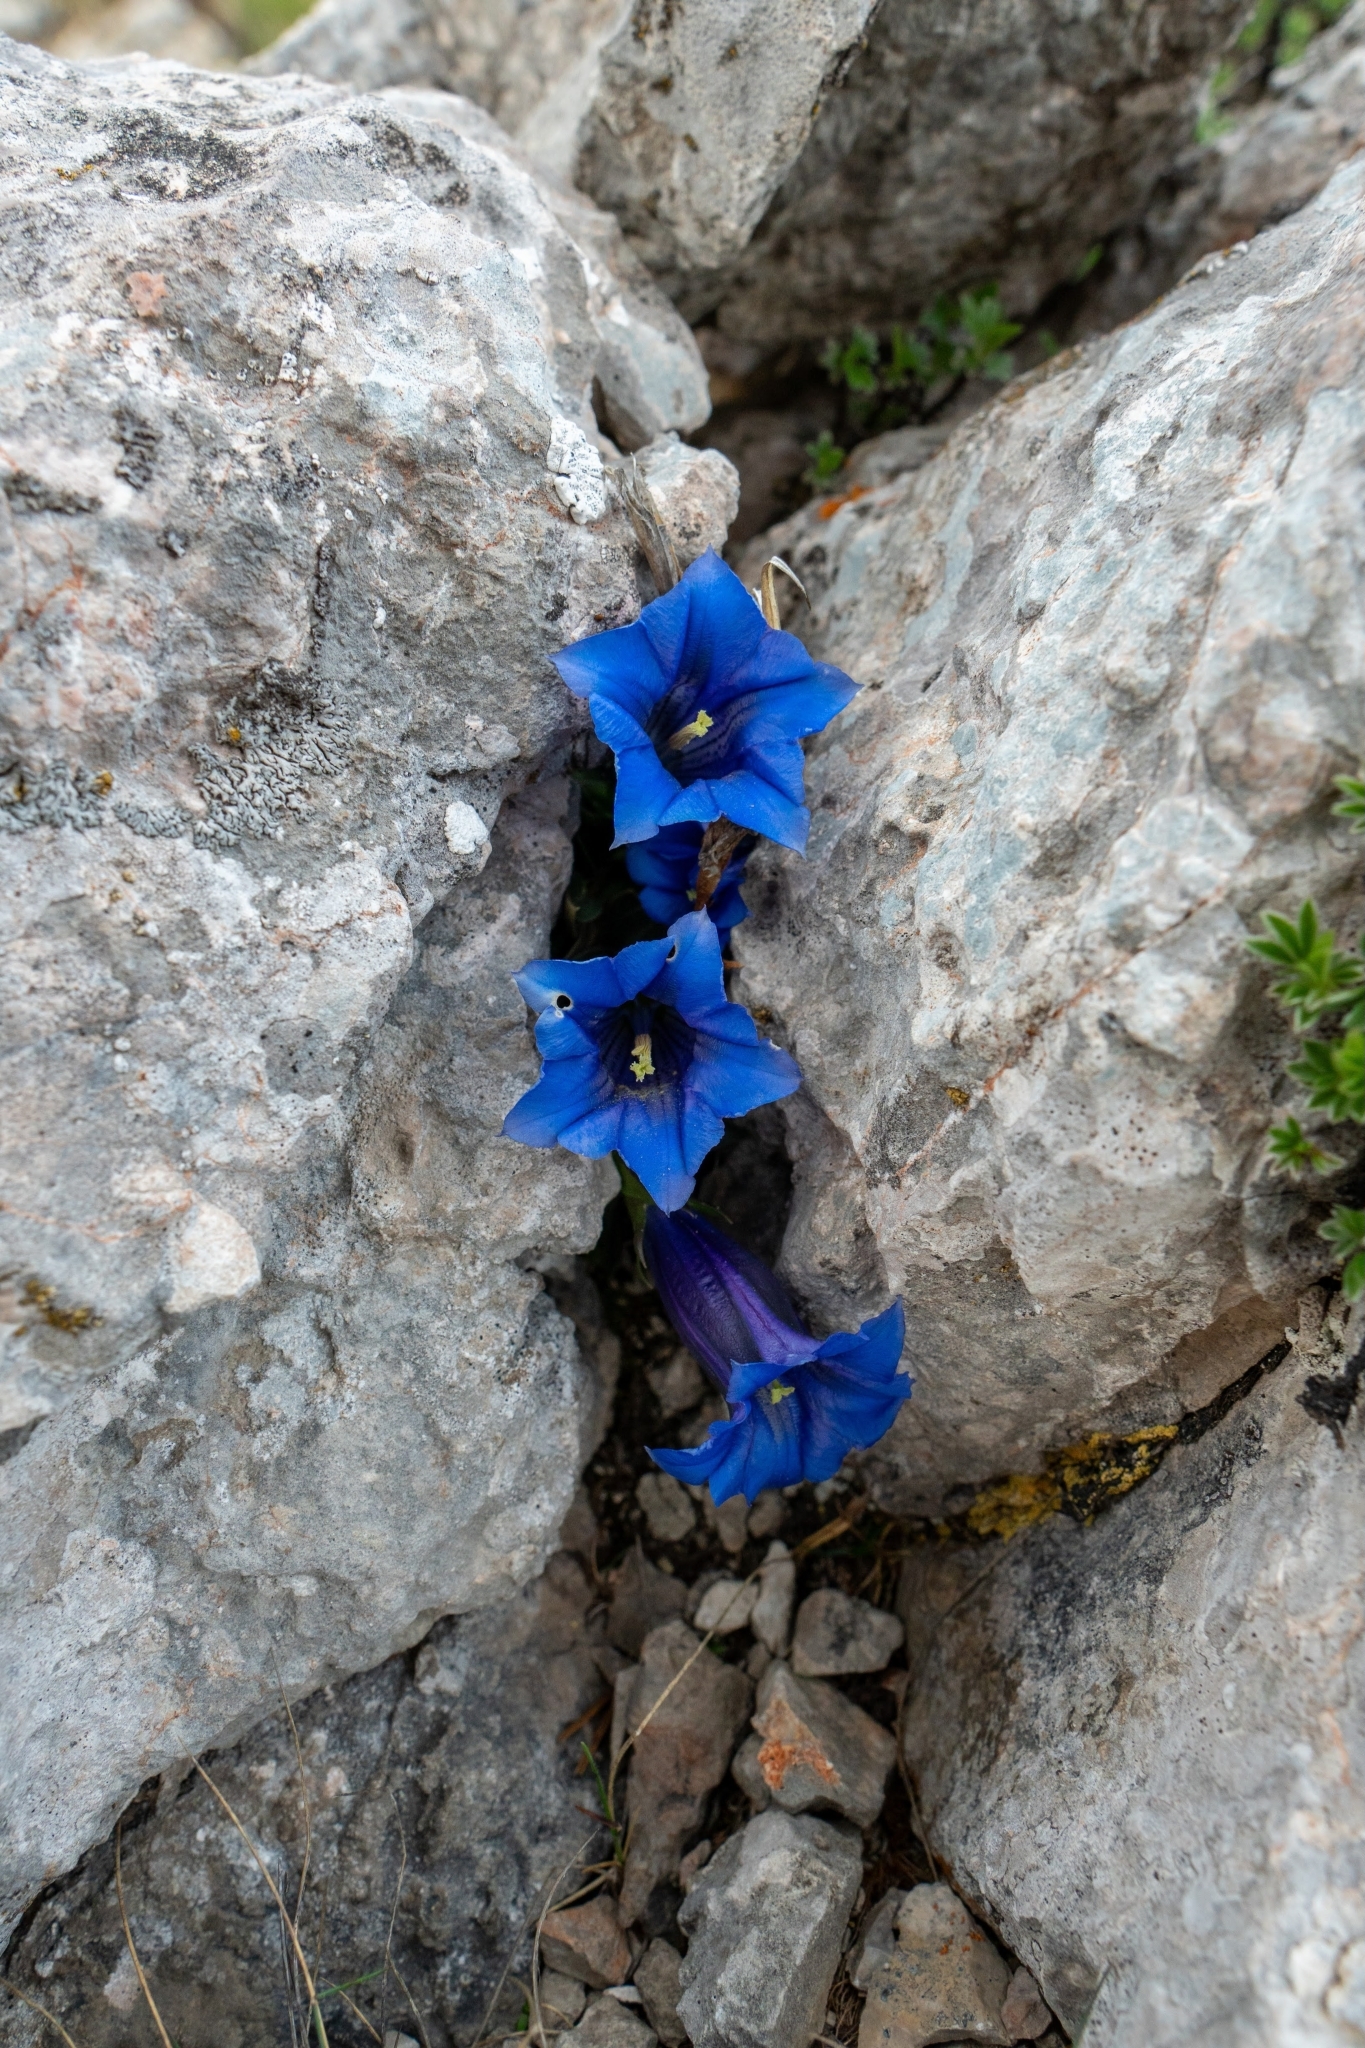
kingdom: Plantae
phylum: Tracheophyta
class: Magnoliopsida
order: Gentianales
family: Gentianaceae
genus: Gentiana
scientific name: Gentiana clusii
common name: Trumpet gentian
